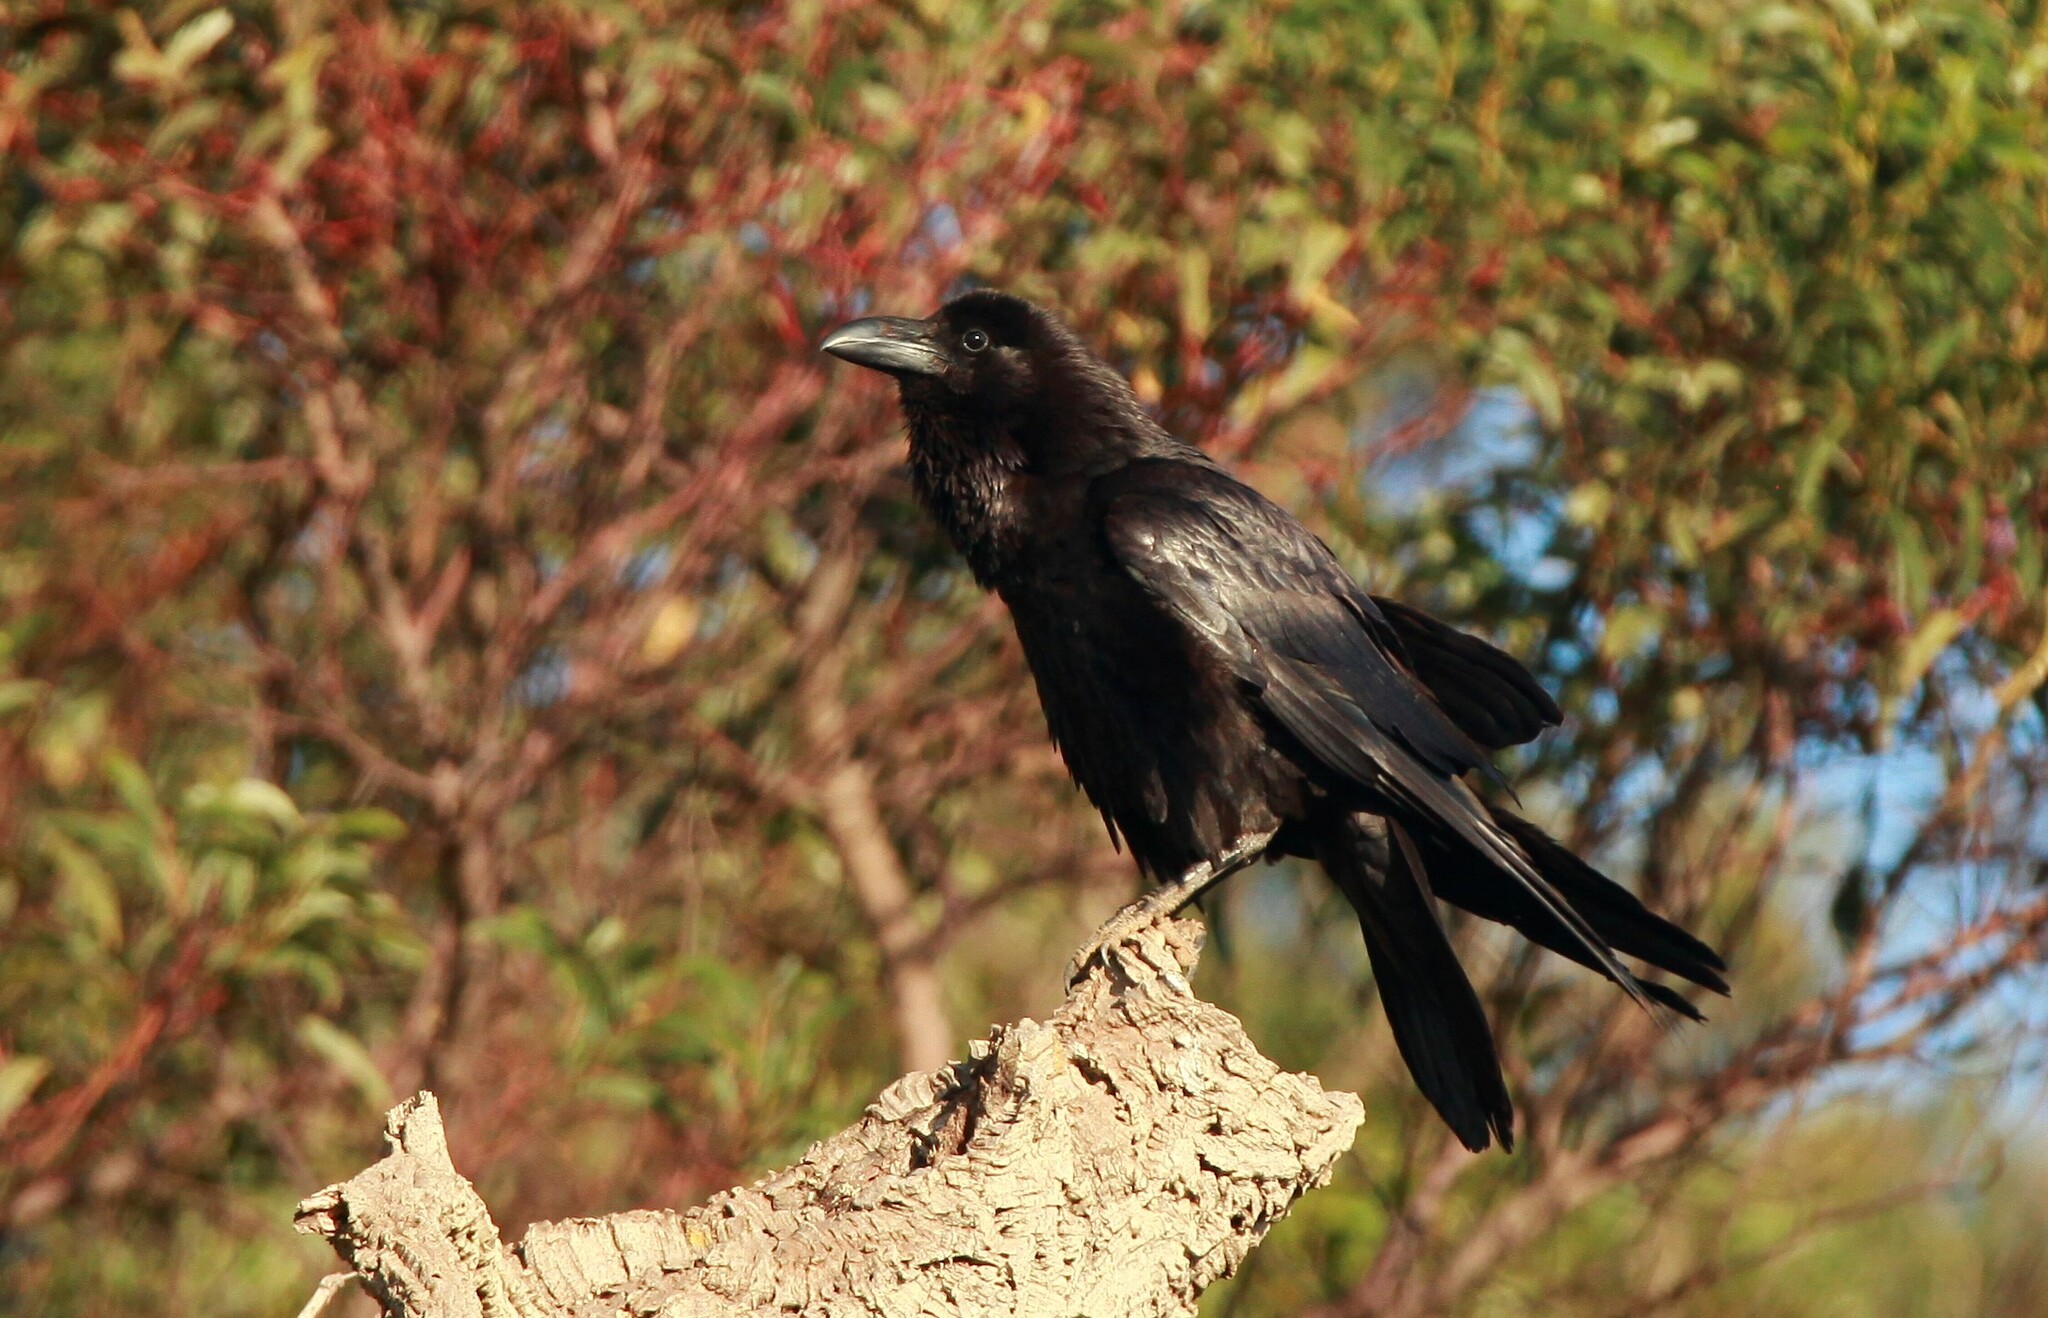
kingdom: Animalia
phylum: Chordata
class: Aves
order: Passeriformes
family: Corvidae
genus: Corvus
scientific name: Corvus corax
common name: Common raven
